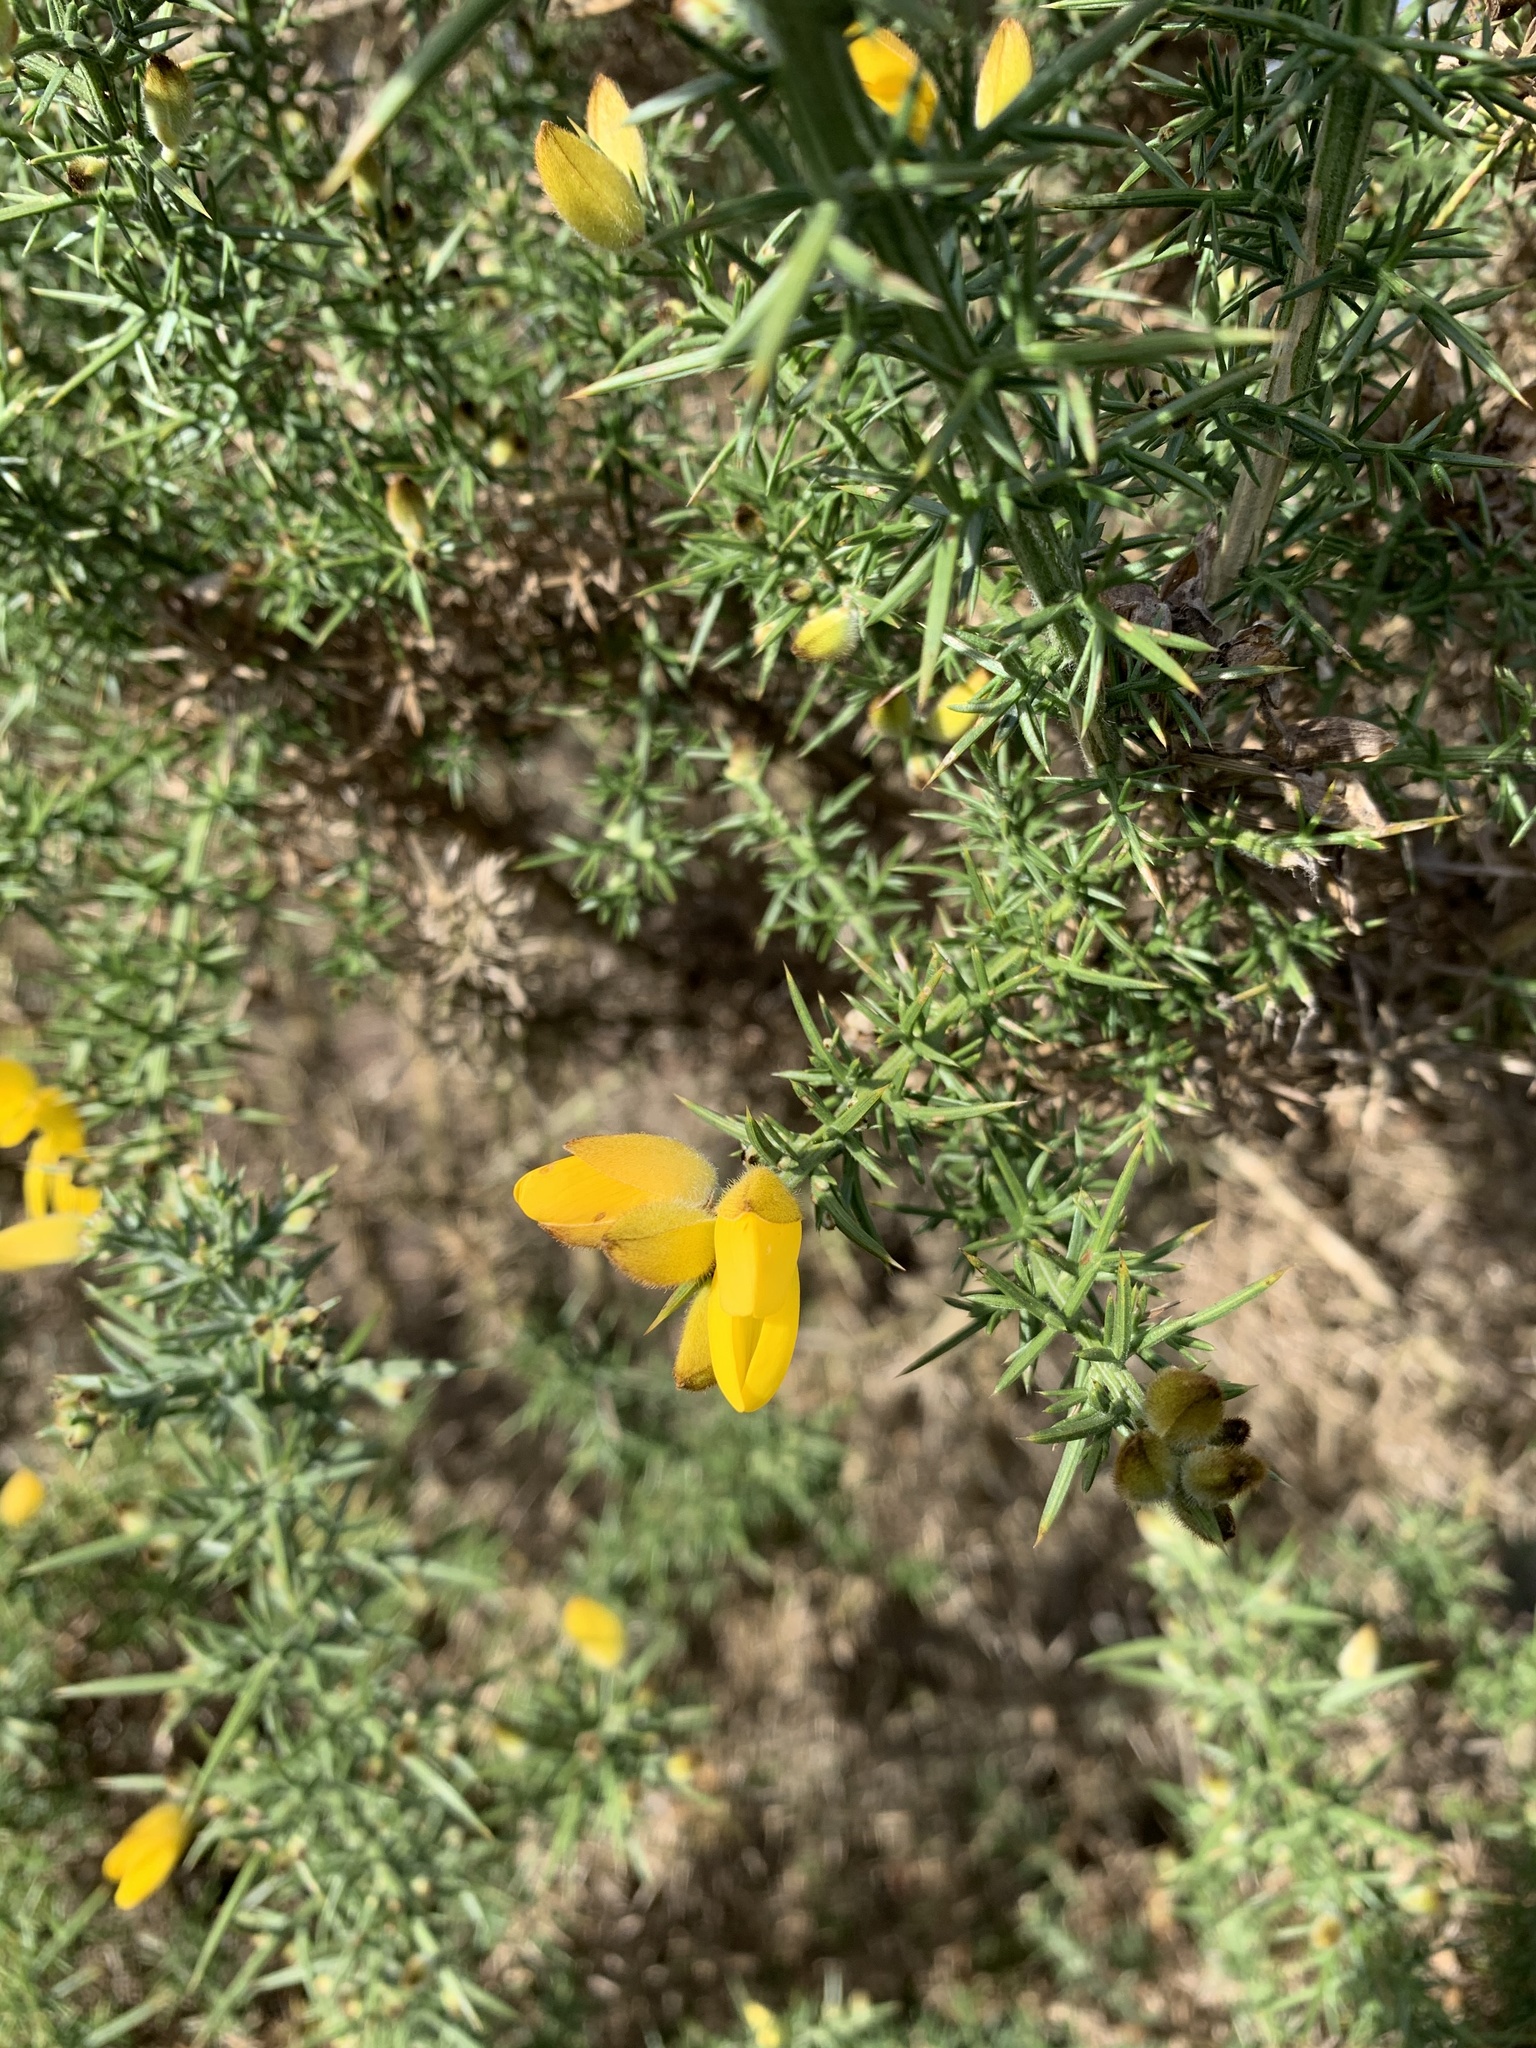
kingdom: Plantae
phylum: Tracheophyta
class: Magnoliopsida
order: Fabales
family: Fabaceae
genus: Ulex
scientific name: Ulex europaeus
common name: Common gorse
